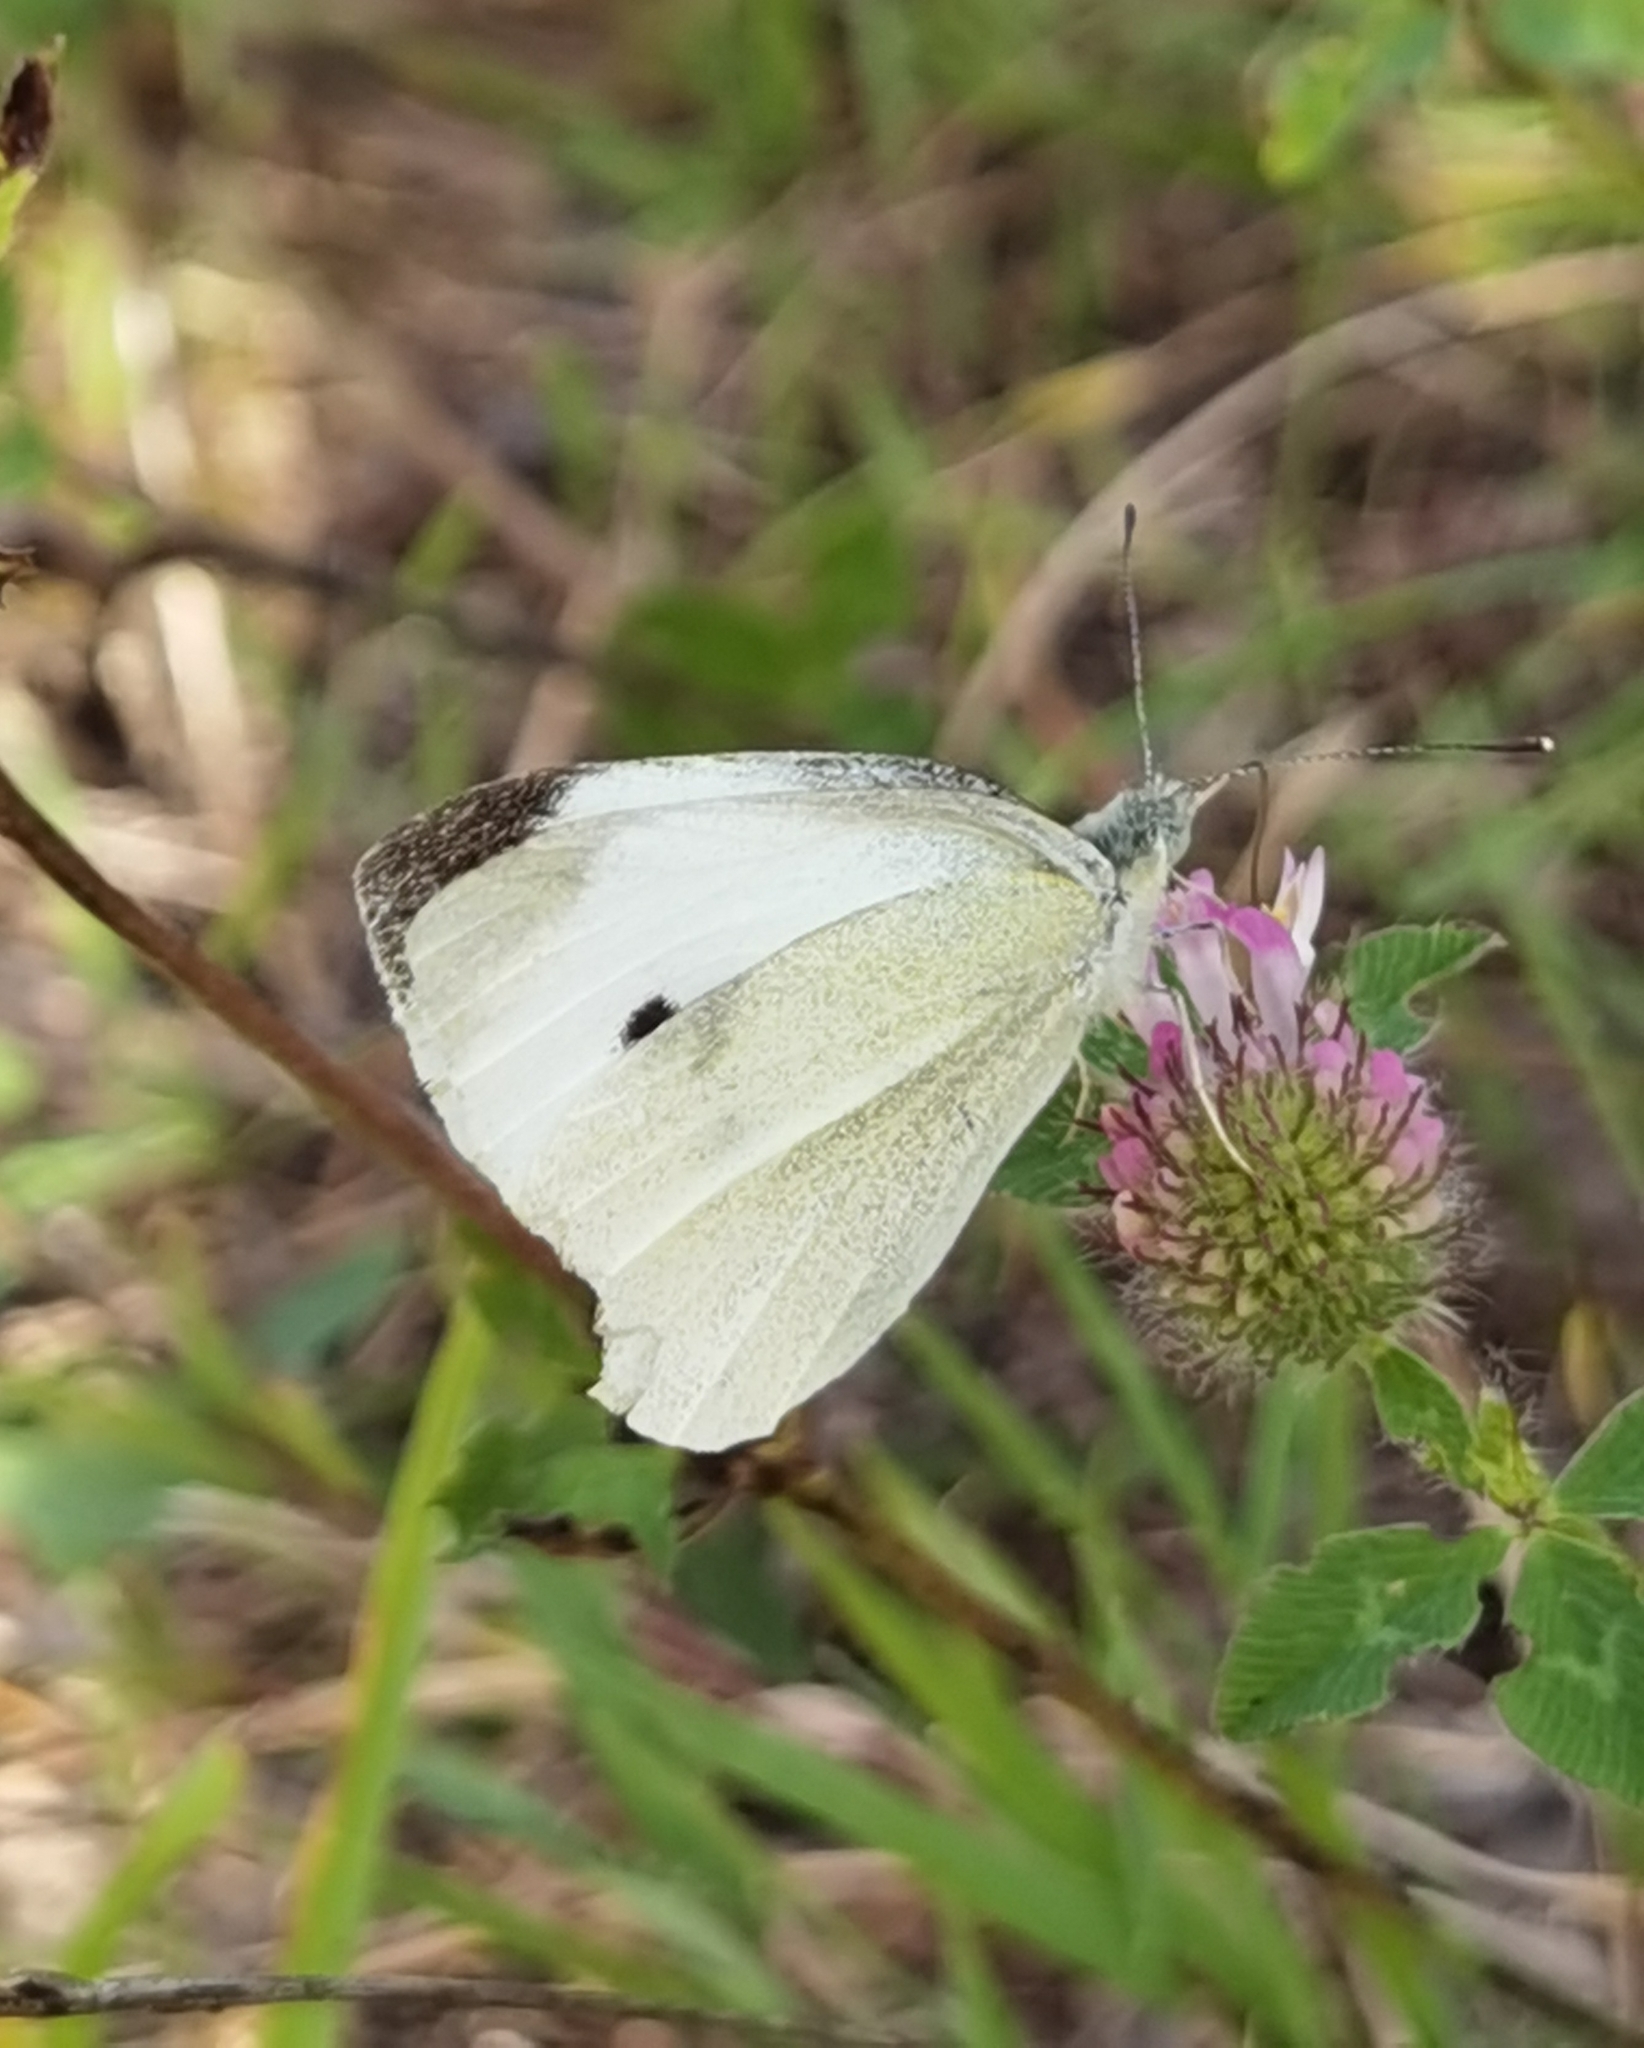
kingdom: Animalia
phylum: Arthropoda
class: Insecta
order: Lepidoptera
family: Pieridae
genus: Pieris
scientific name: Pieris rapae
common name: Small white
